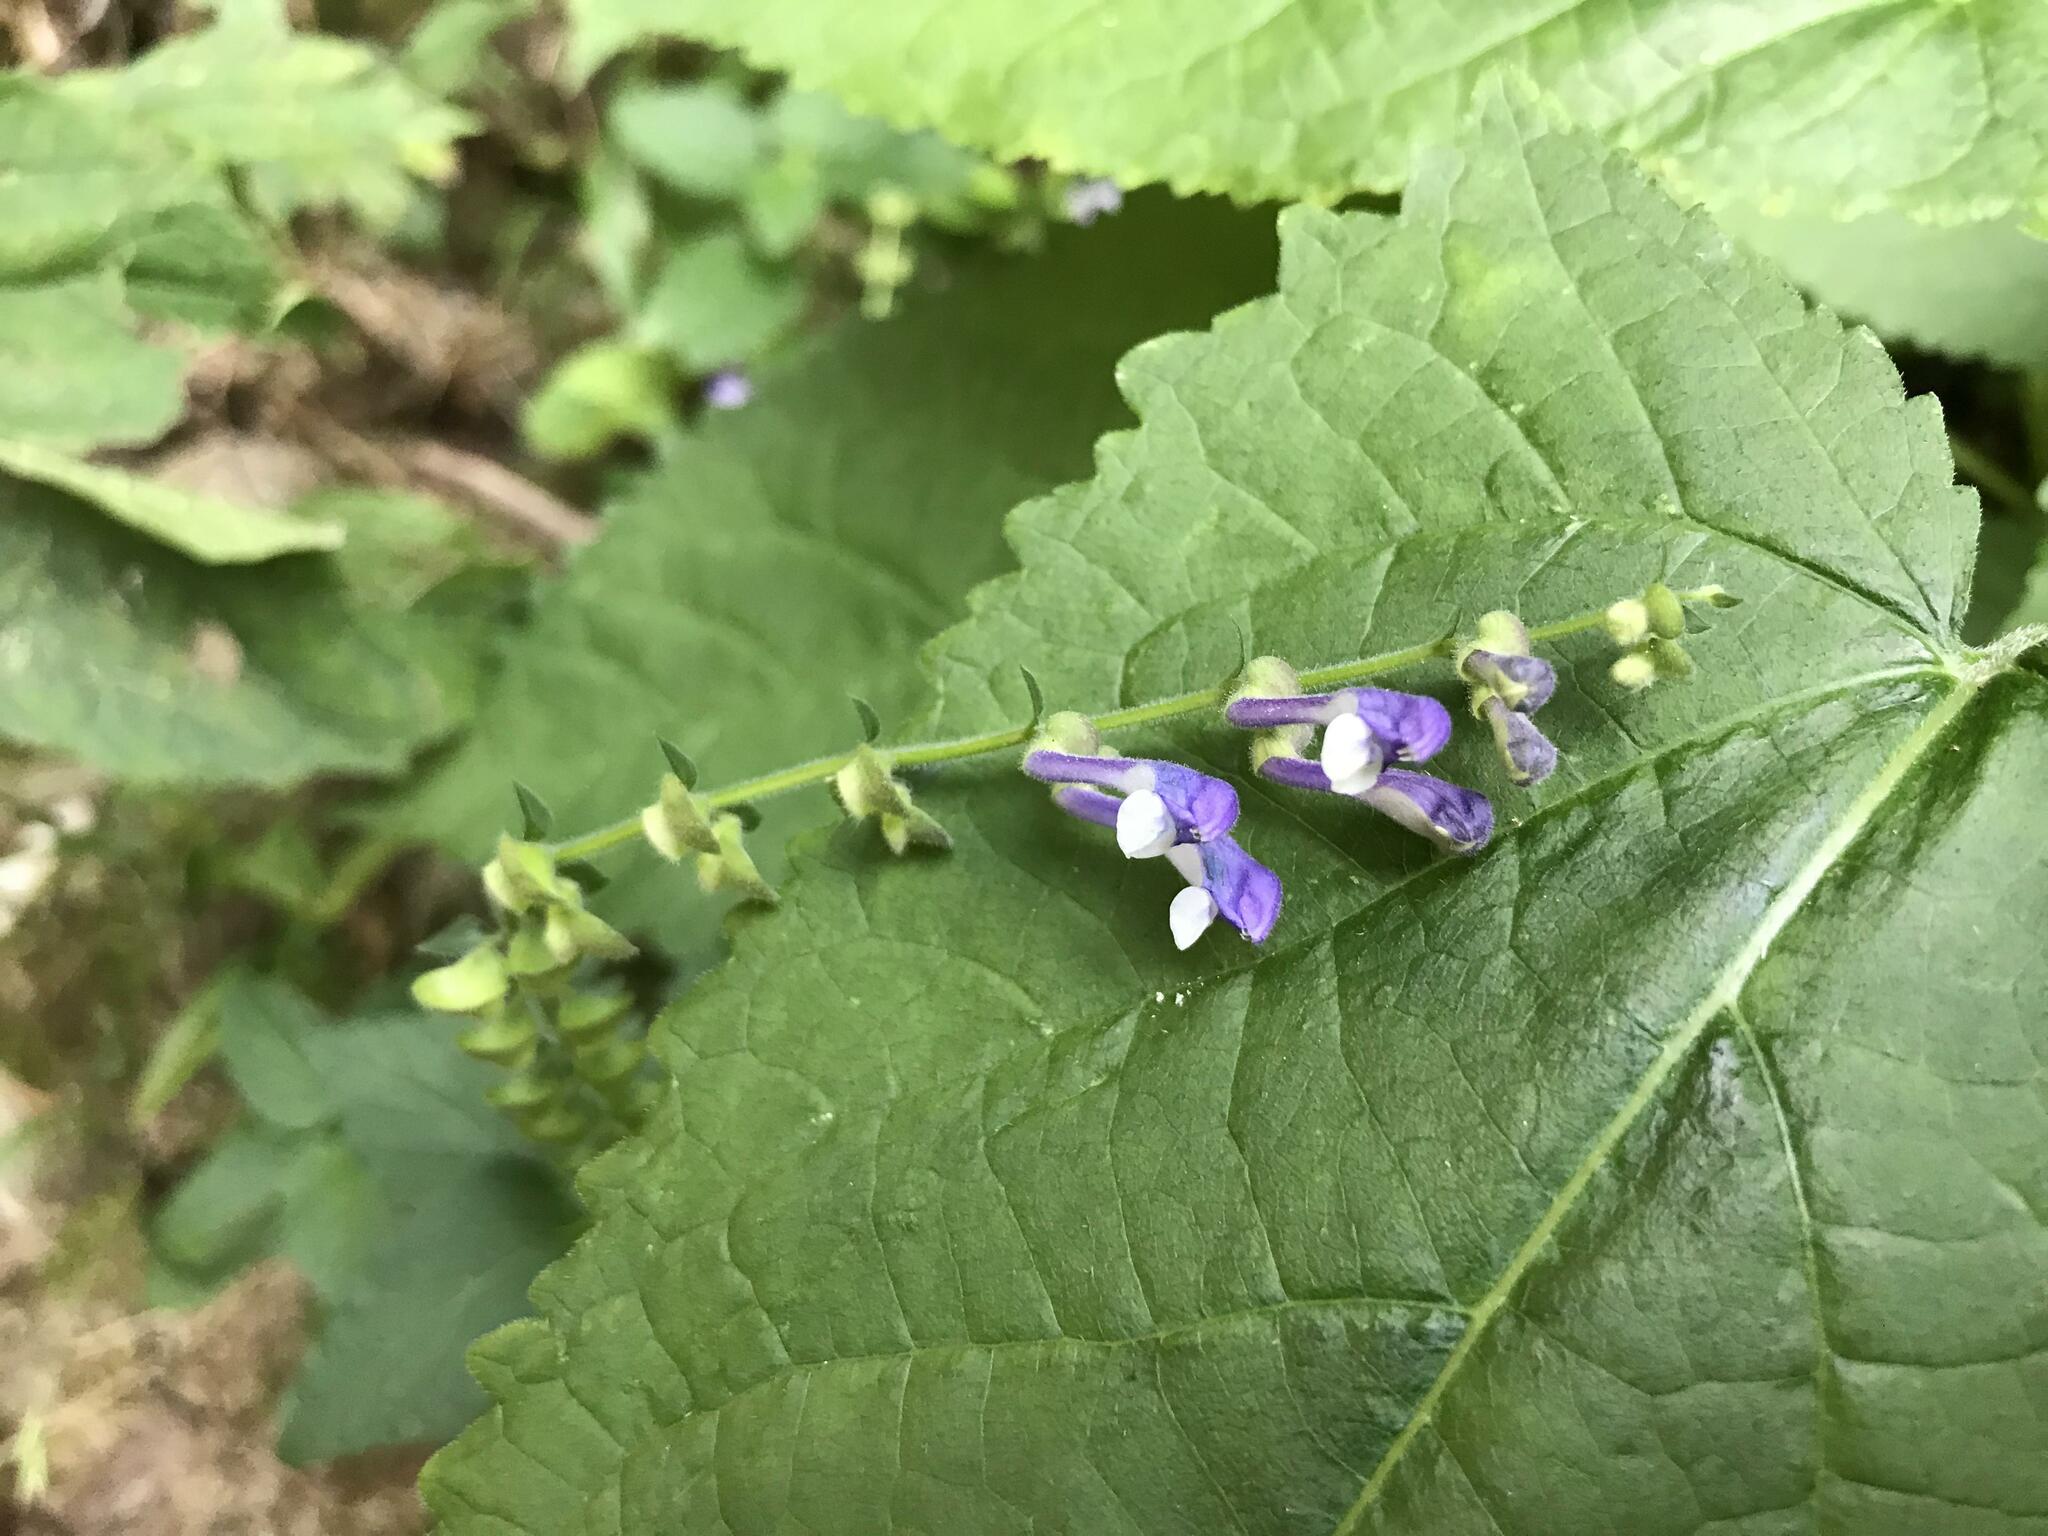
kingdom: Plantae
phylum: Tracheophyta
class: Magnoliopsida
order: Lamiales
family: Lamiaceae
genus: Scutellaria
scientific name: Scutellaria altissima
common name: Somerset skullcap
